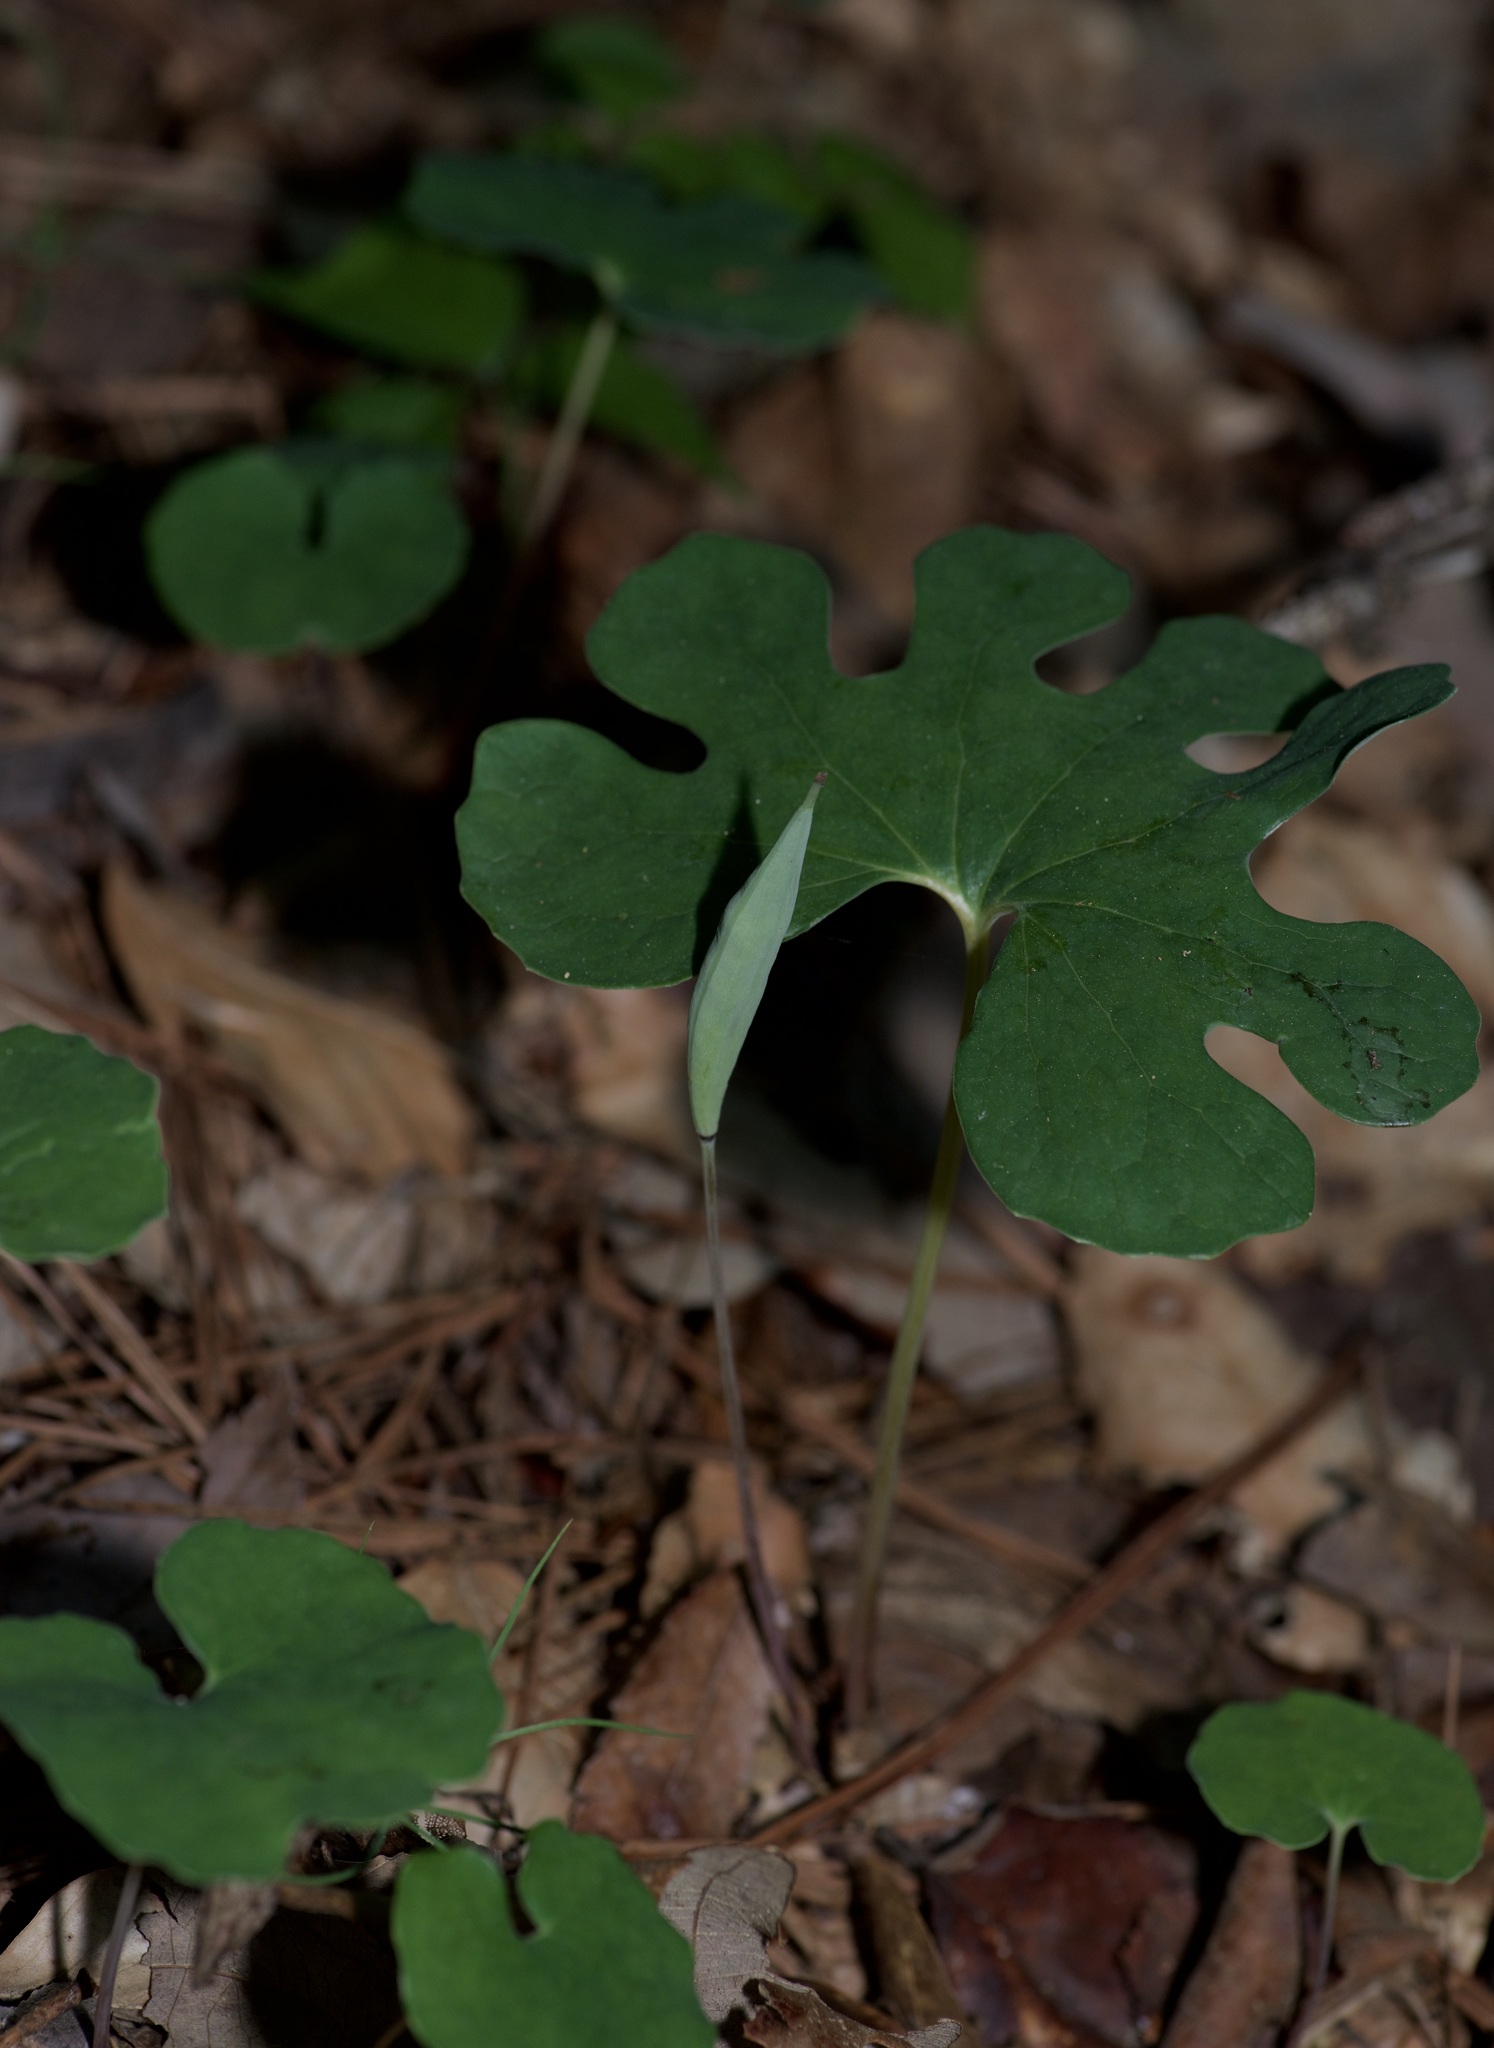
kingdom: Plantae
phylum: Tracheophyta
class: Magnoliopsida
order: Ranunculales
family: Papaveraceae
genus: Sanguinaria
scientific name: Sanguinaria canadensis
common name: Bloodroot
